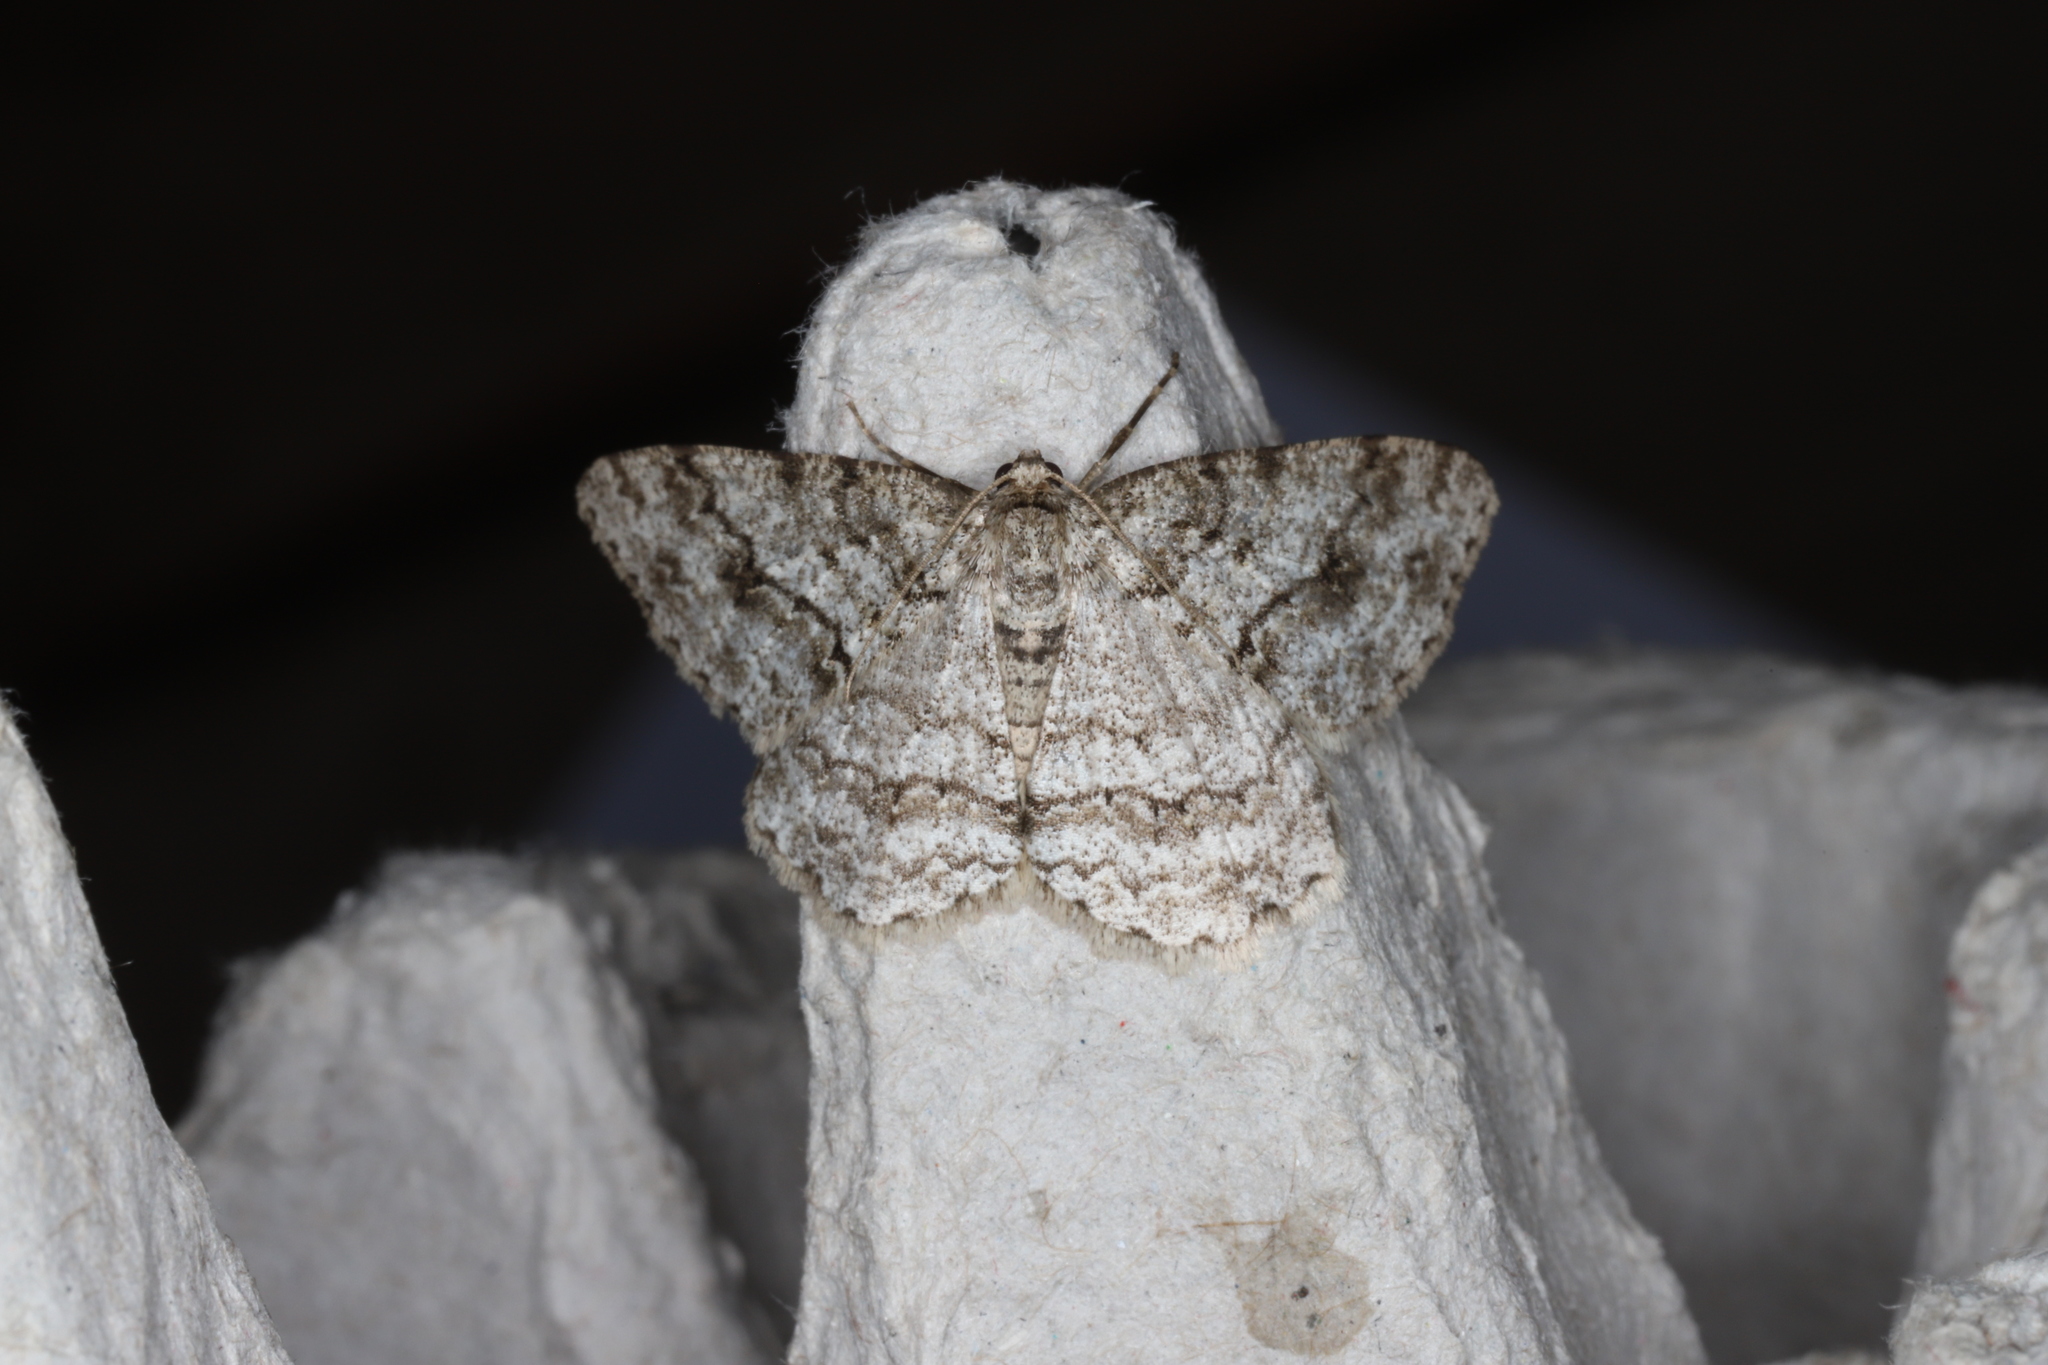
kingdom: Animalia
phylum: Arthropoda
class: Insecta
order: Lepidoptera
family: Geometridae
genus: Ectropis
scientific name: Ectropis crepuscularia
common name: Engrailed
